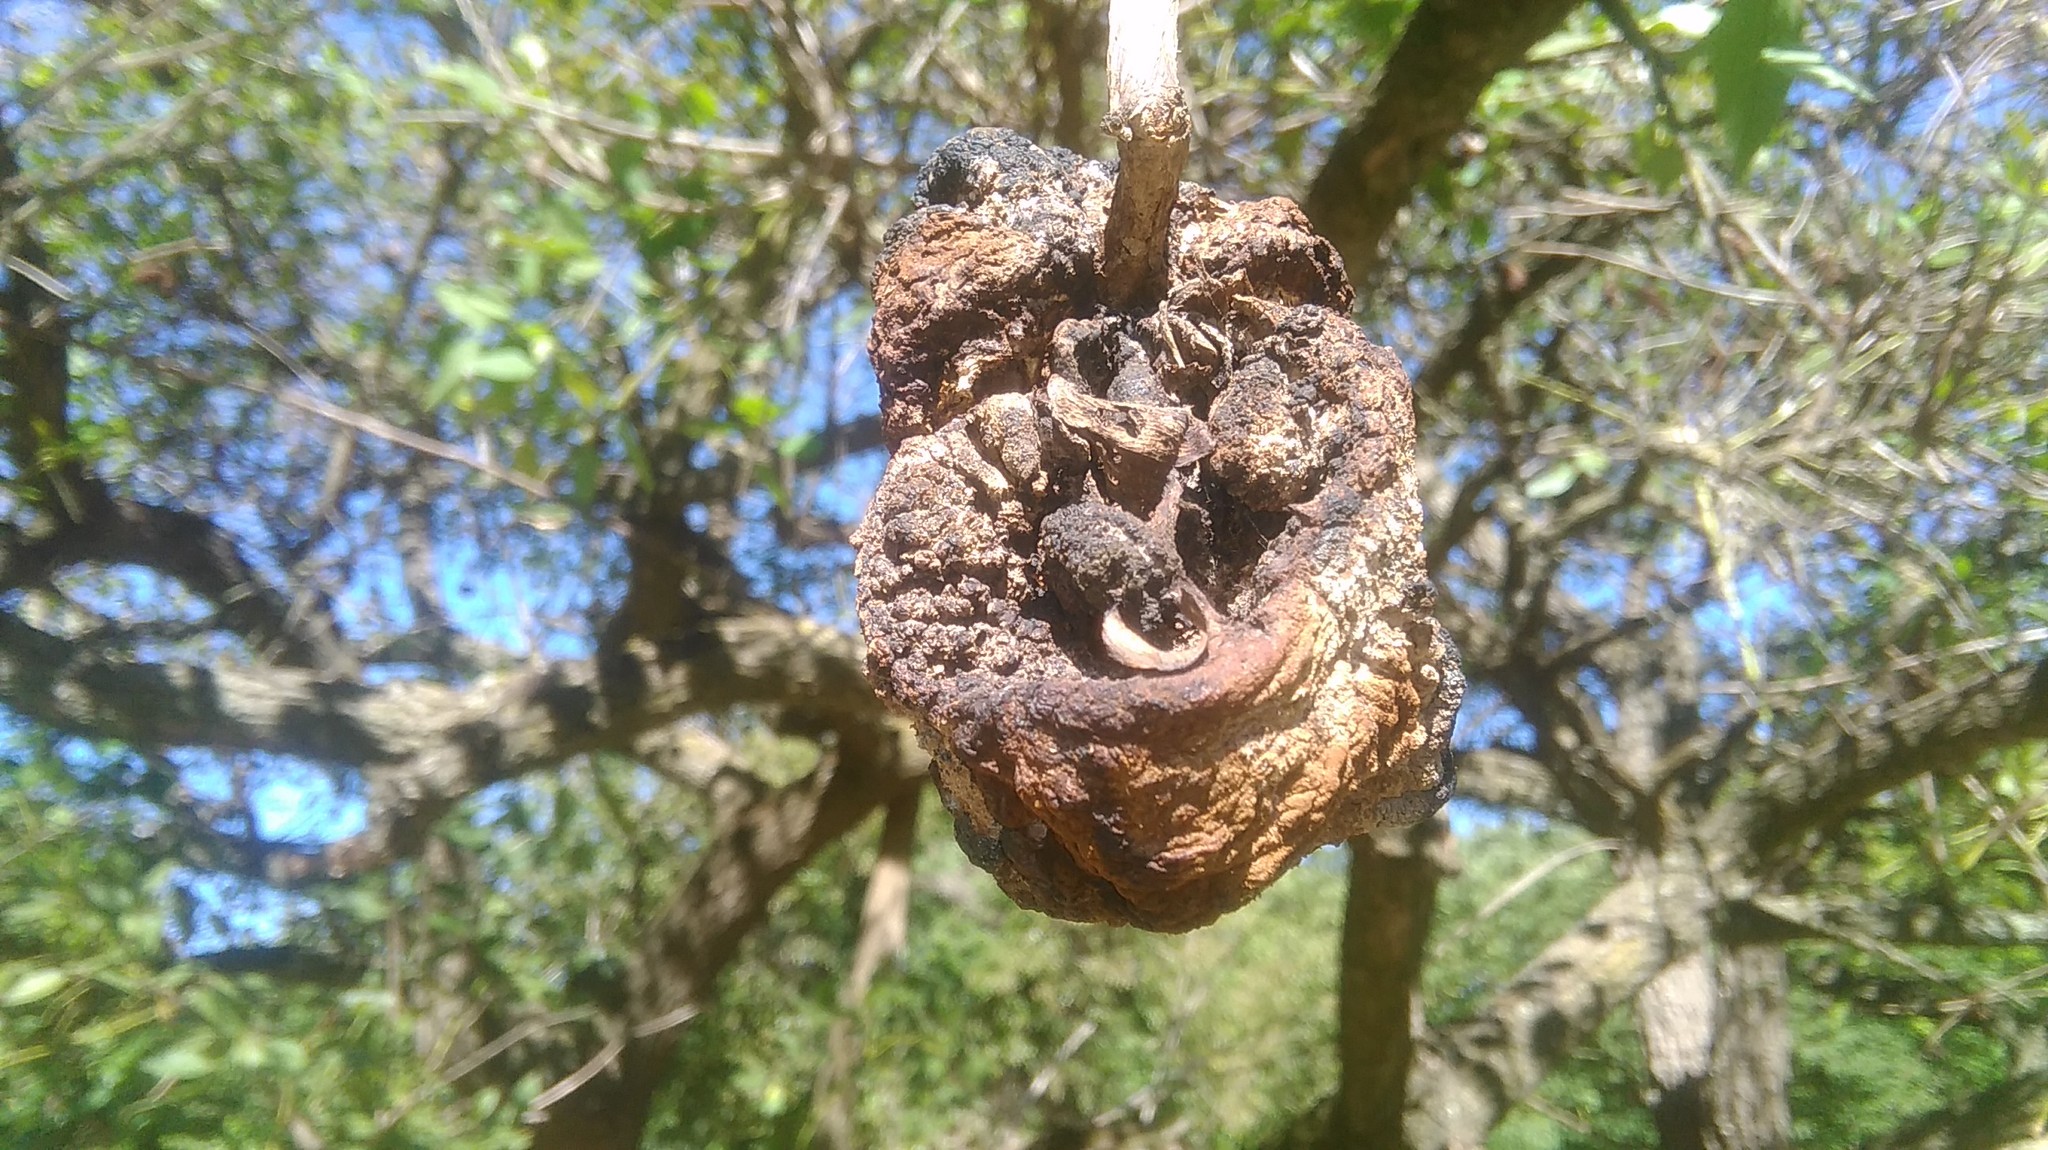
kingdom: Fungi
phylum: Basidiomycota
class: Pucciniomycetes
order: Pucciniales
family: Raveneliaceae
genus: Ravenelia
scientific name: Ravenelia platensis
